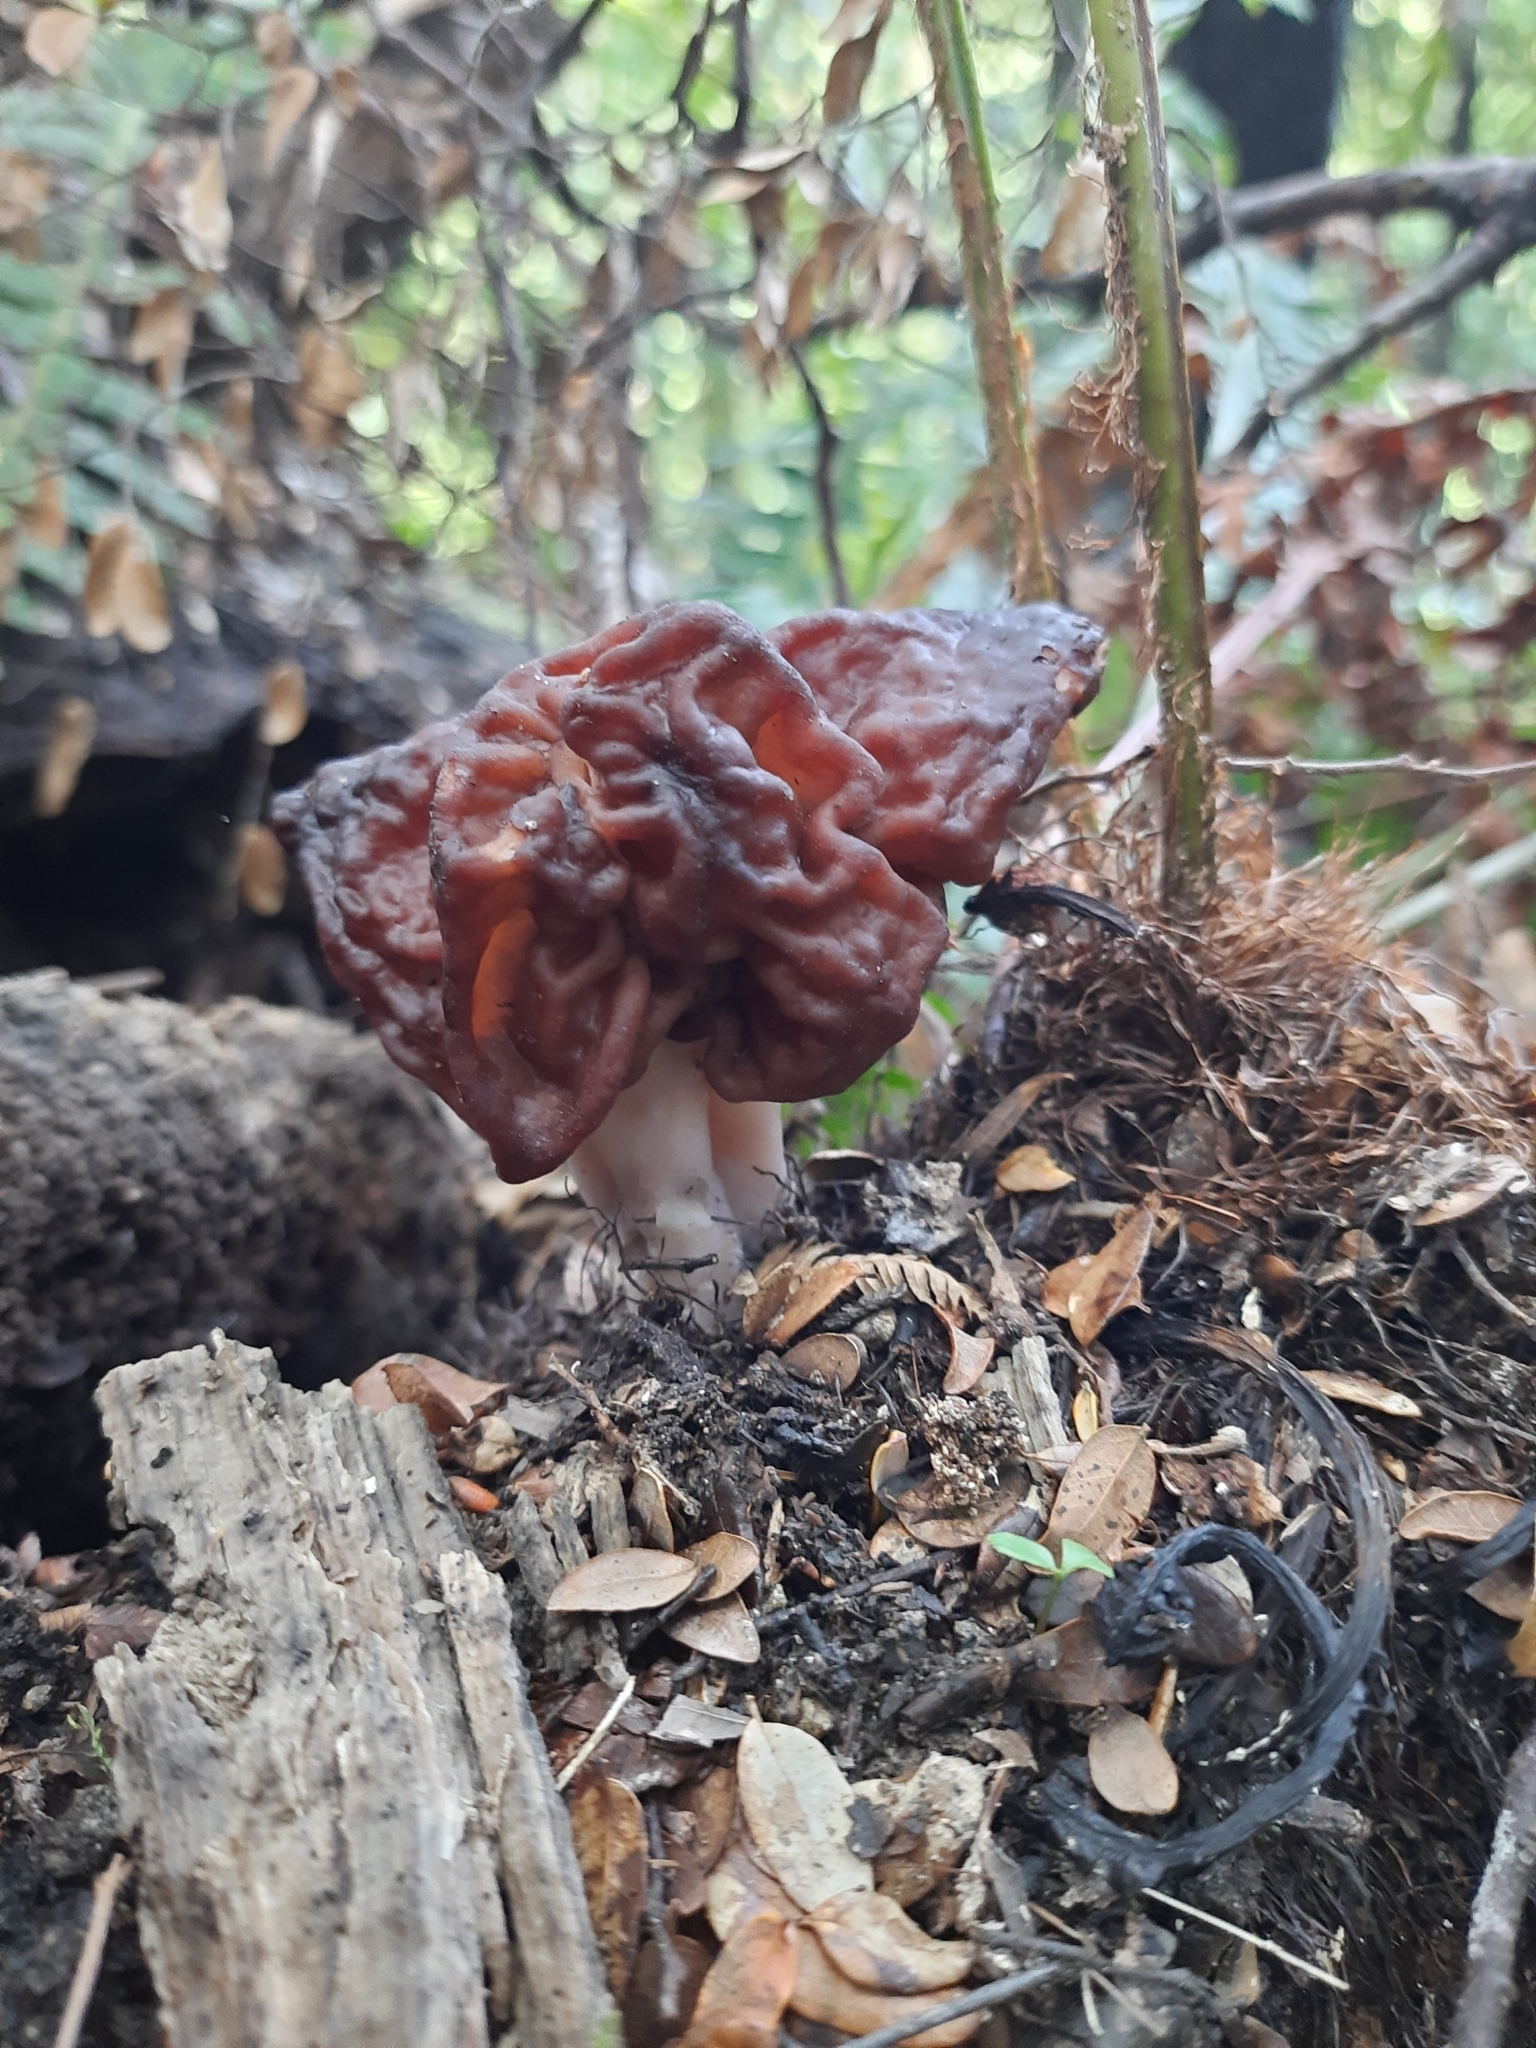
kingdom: Fungi
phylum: Ascomycota
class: Pezizomycetes
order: Pezizales
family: Discinaceae
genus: Gyromitra
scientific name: Gyromitra tasmanica
